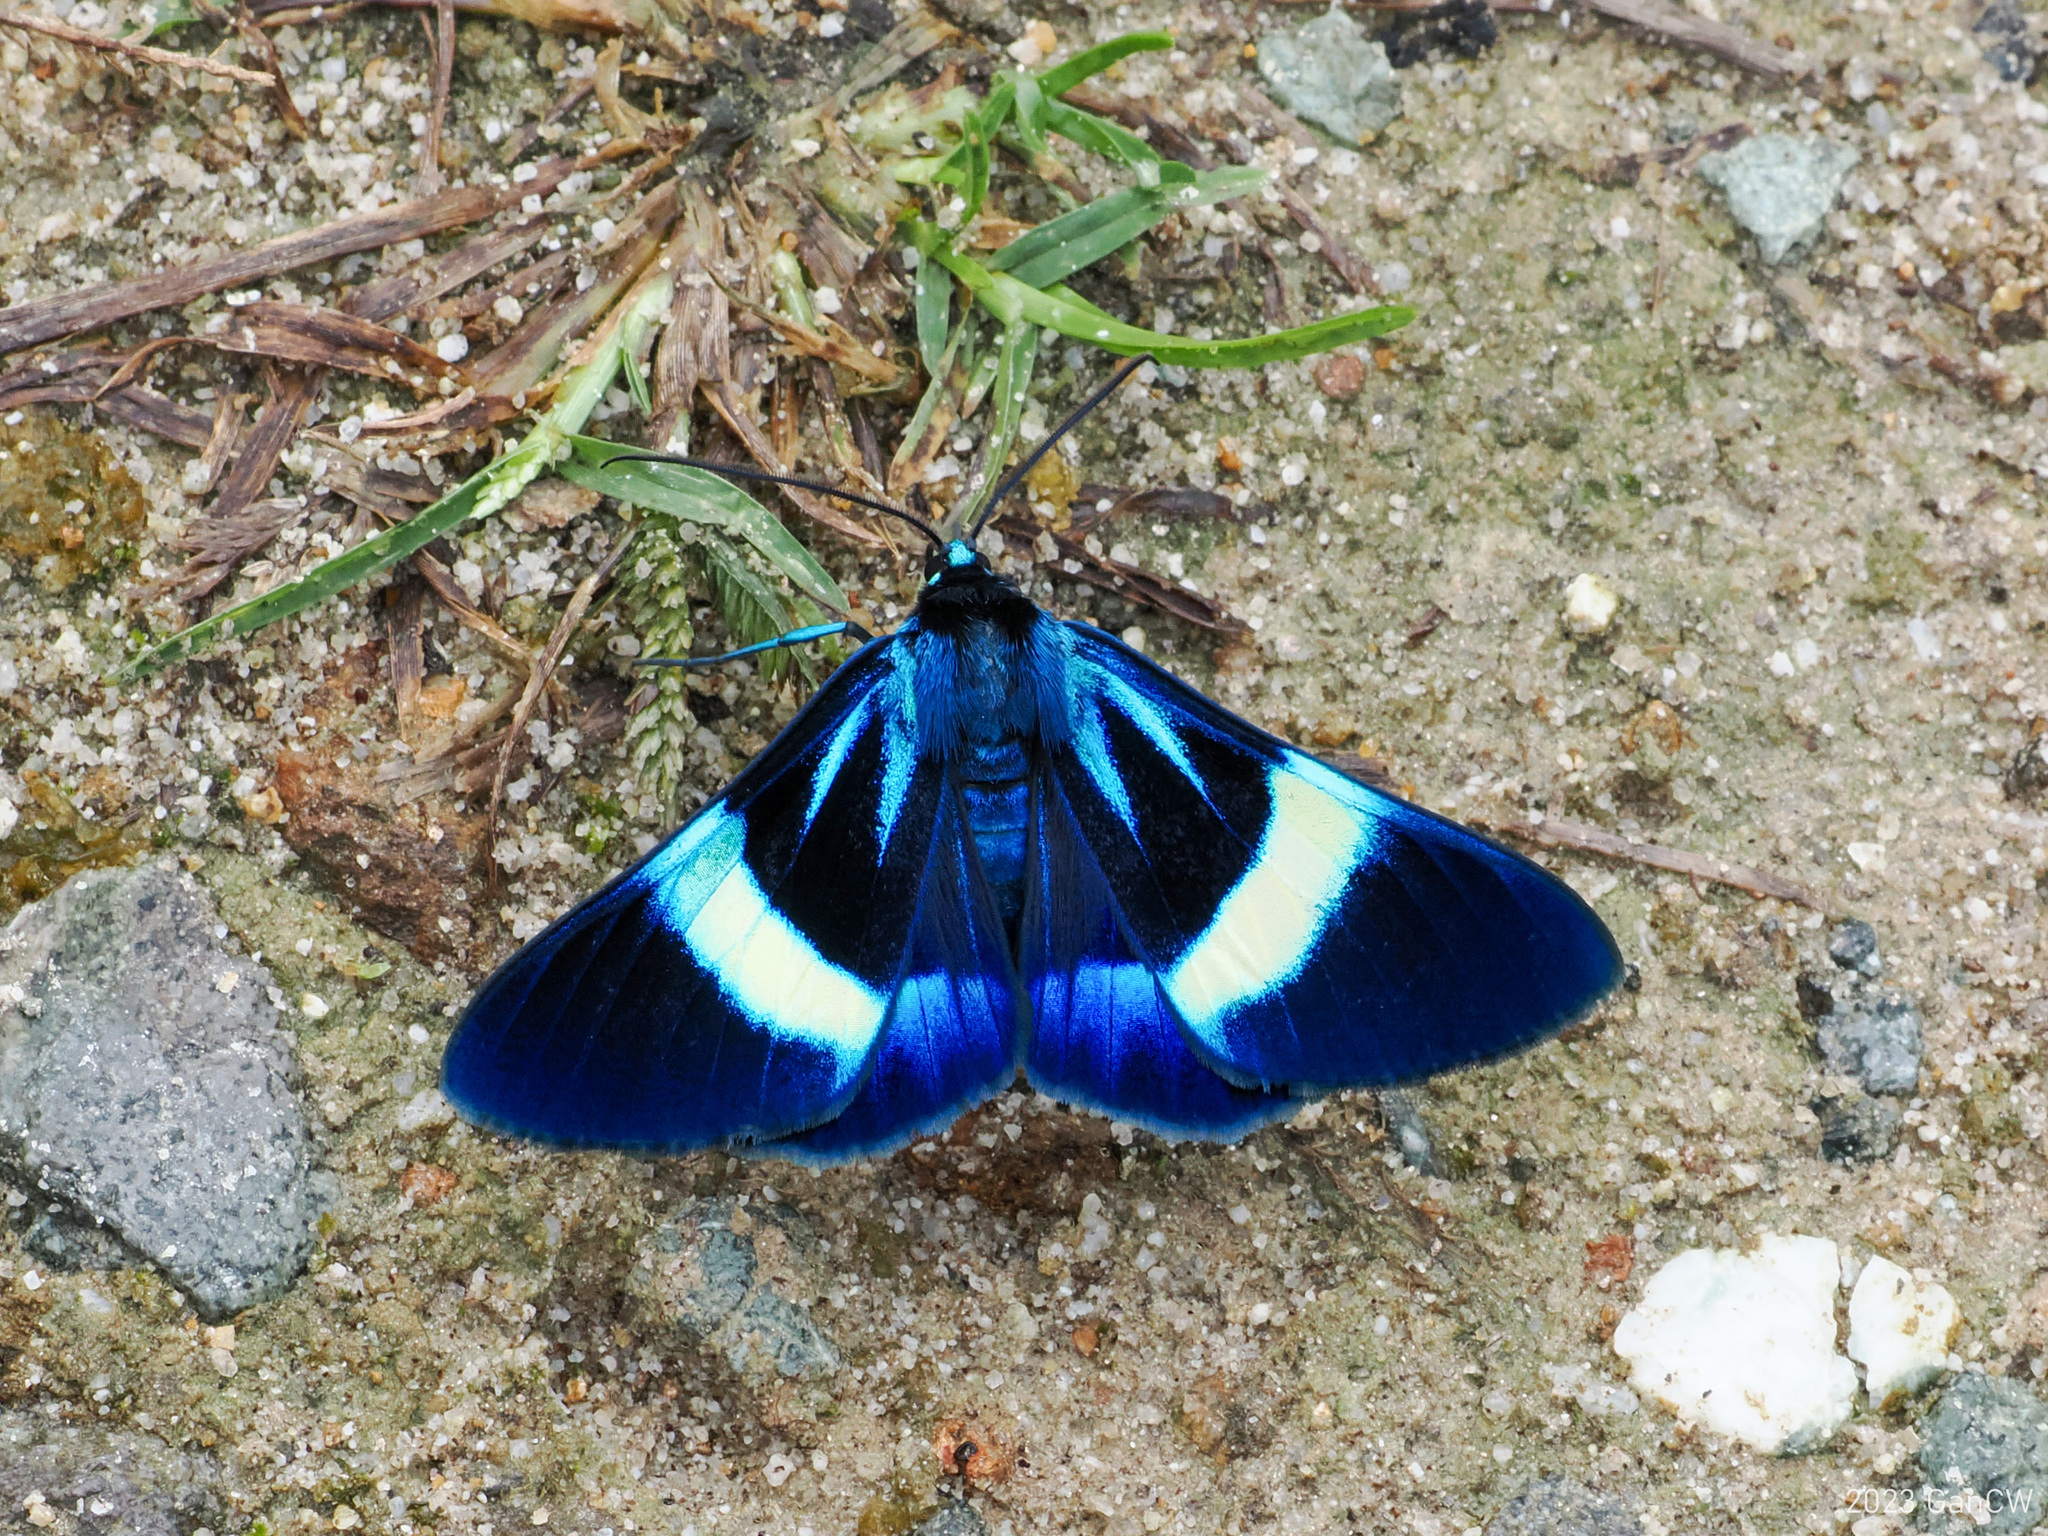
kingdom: Animalia
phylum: Arthropoda
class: Insecta
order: Lepidoptera
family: Geometridae
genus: Milionia
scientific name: Milionia
